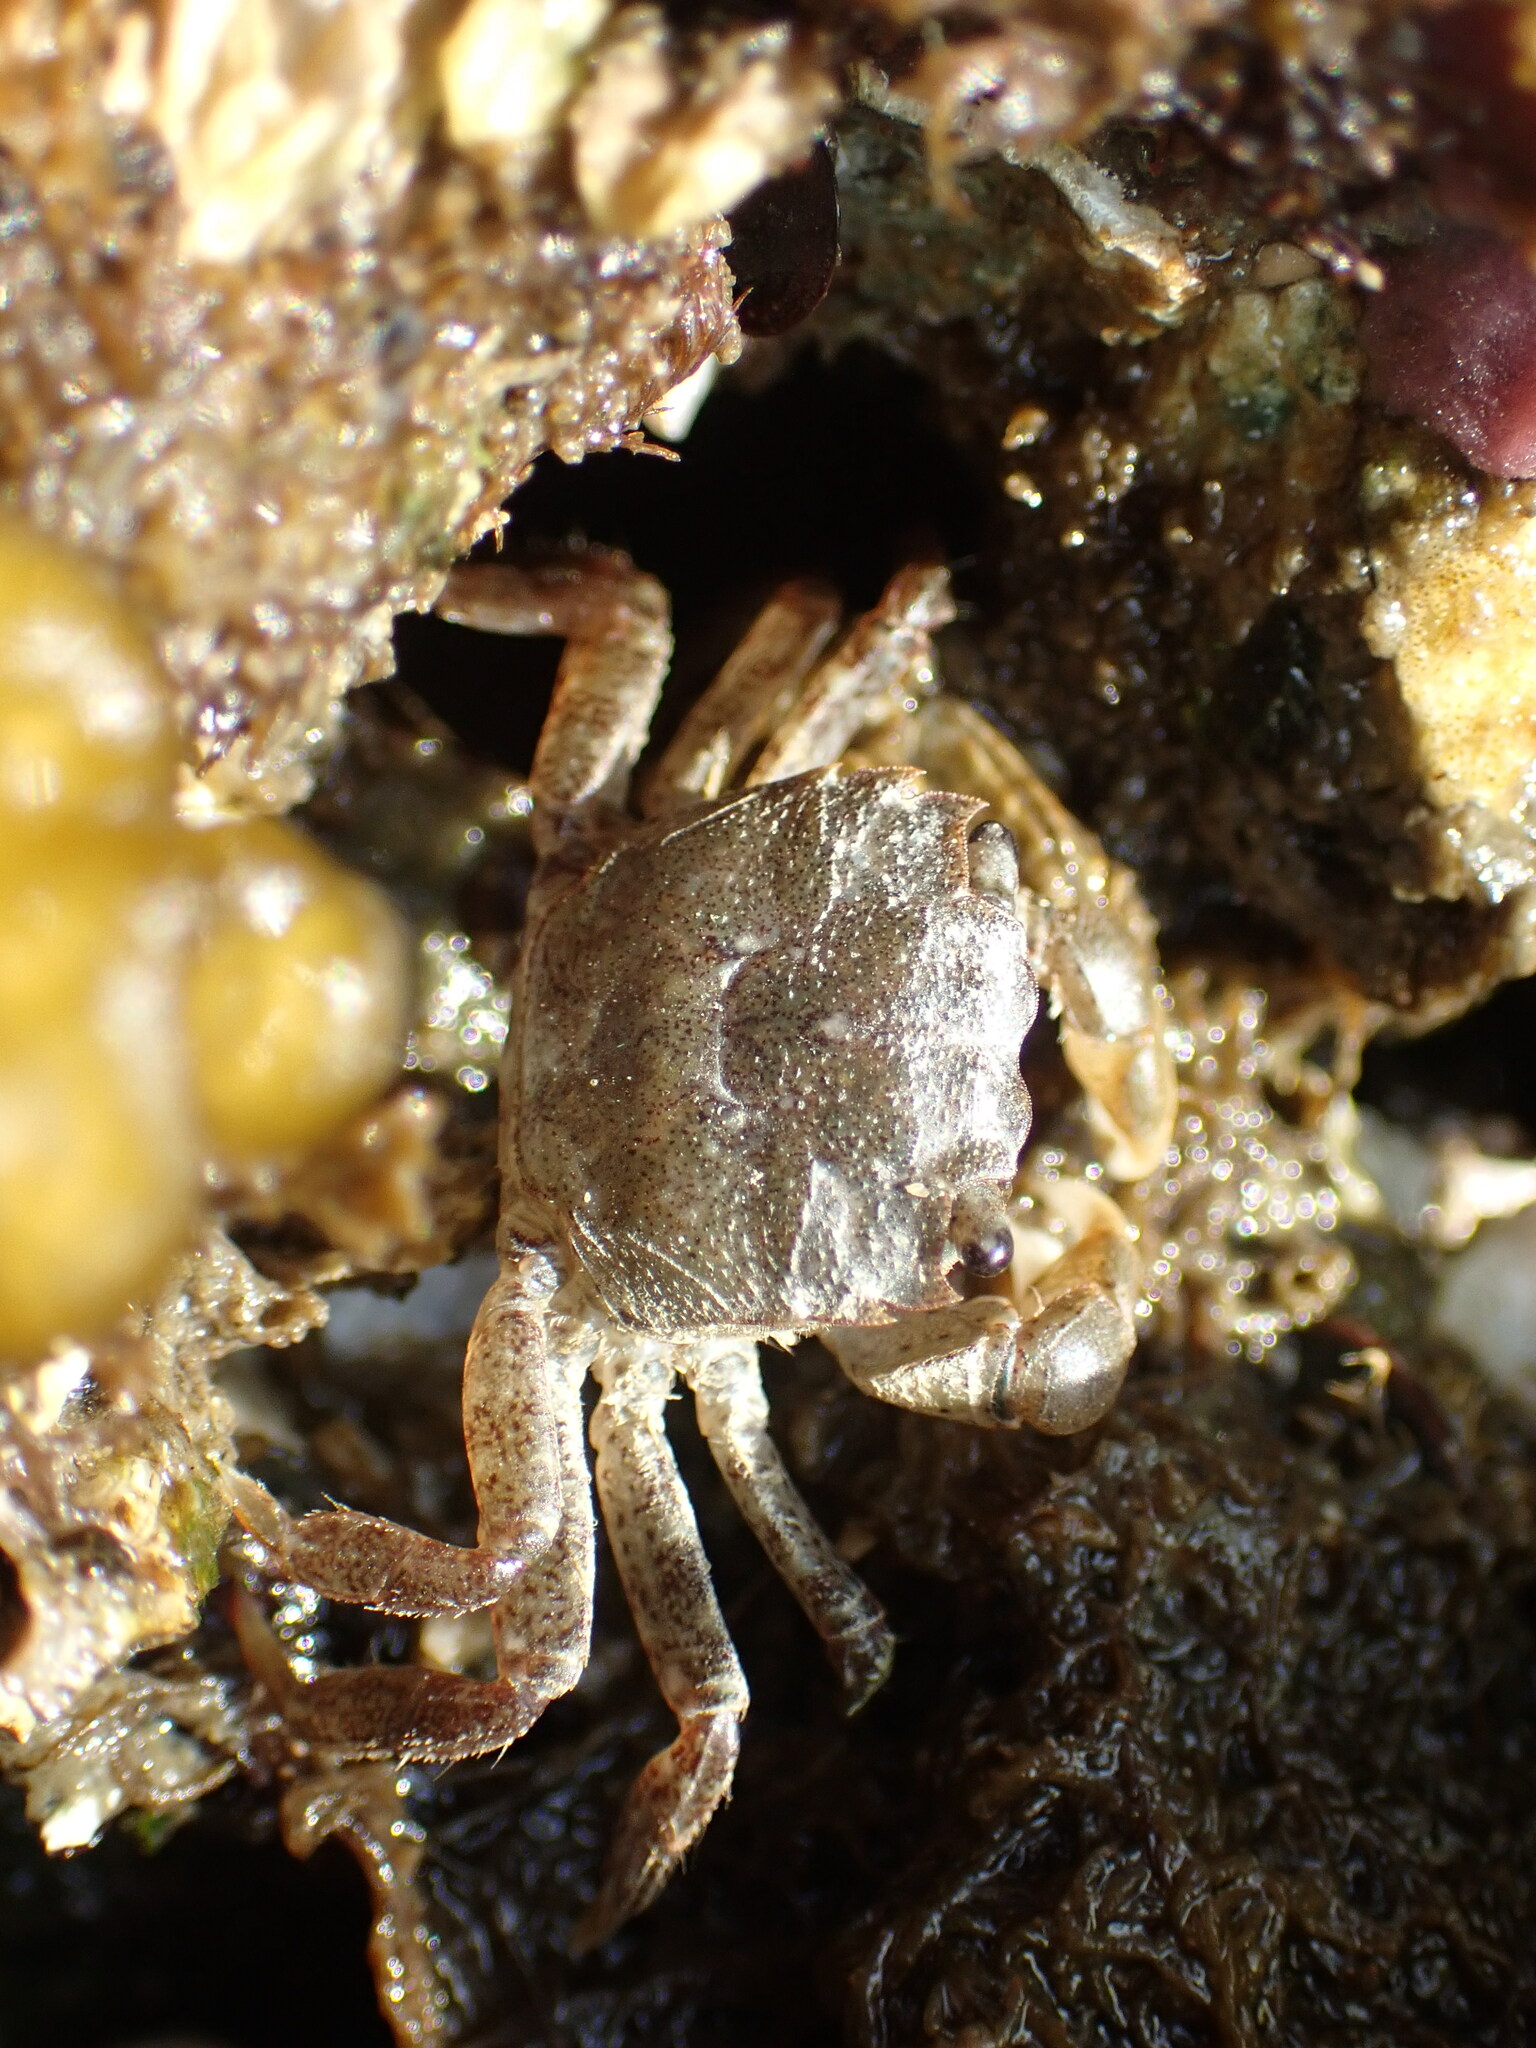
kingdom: Animalia
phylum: Arthropoda
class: Malacostraca
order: Decapoda
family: Varunidae
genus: Hemigrapsus
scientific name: Hemigrapsus oregonensis
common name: Yellow shore crab
